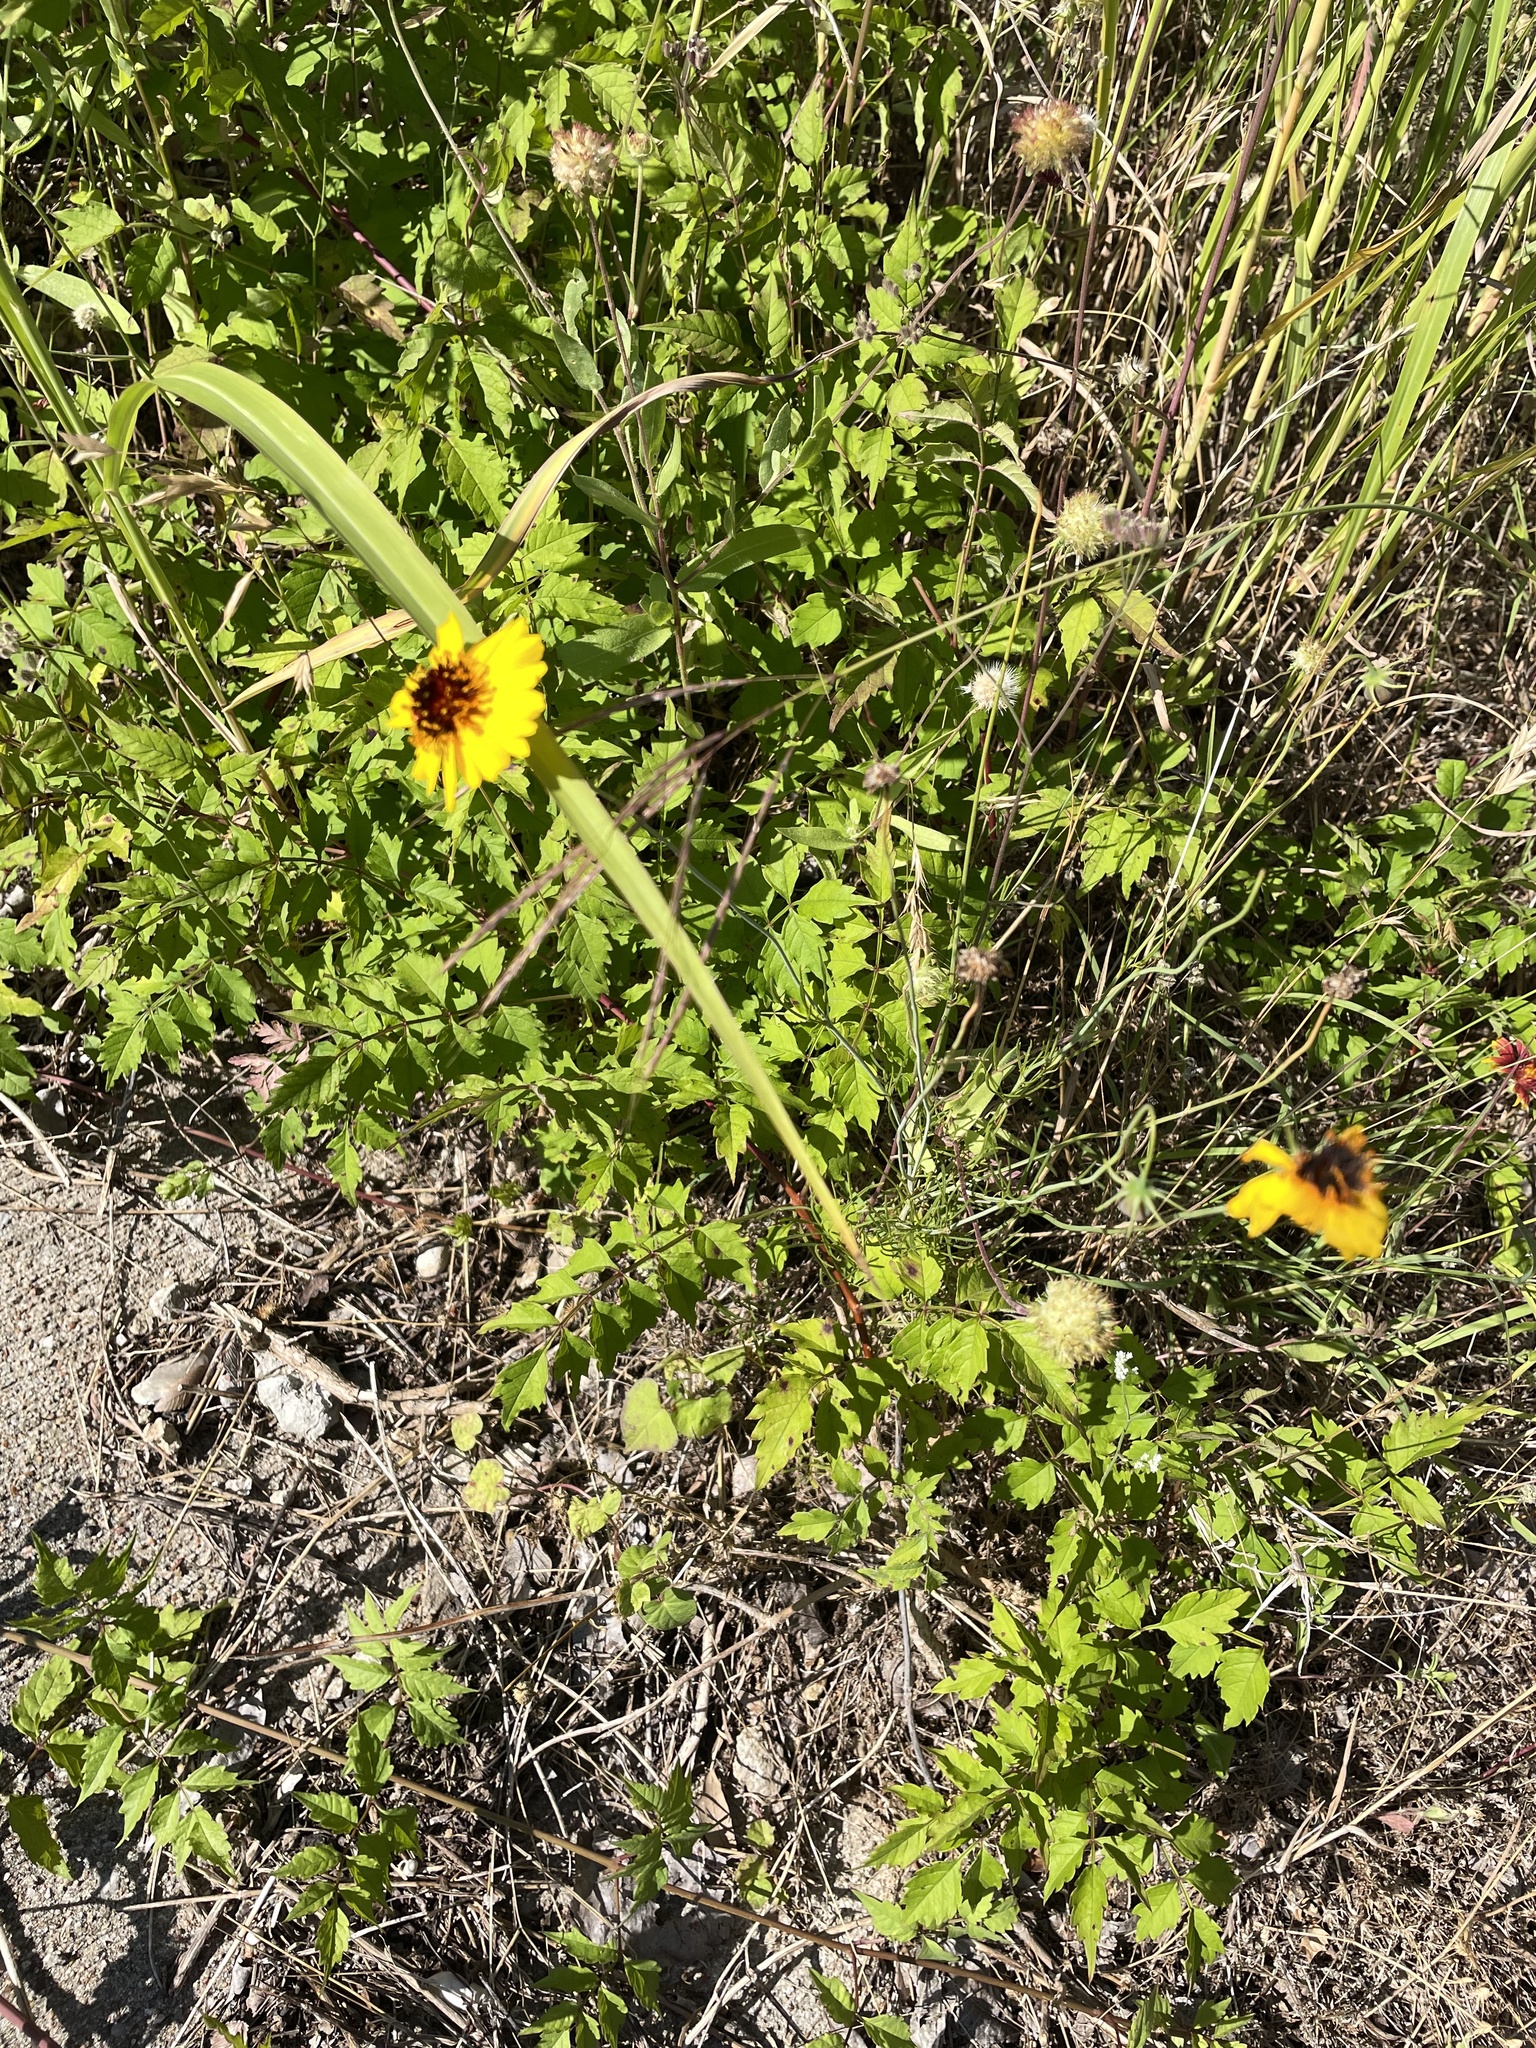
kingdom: Plantae
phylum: Tracheophyta
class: Magnoliopsida
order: Asterales
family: Asteraceae
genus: Thelesperma
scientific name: Thelesperma filifolium
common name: Stiff greenthread
